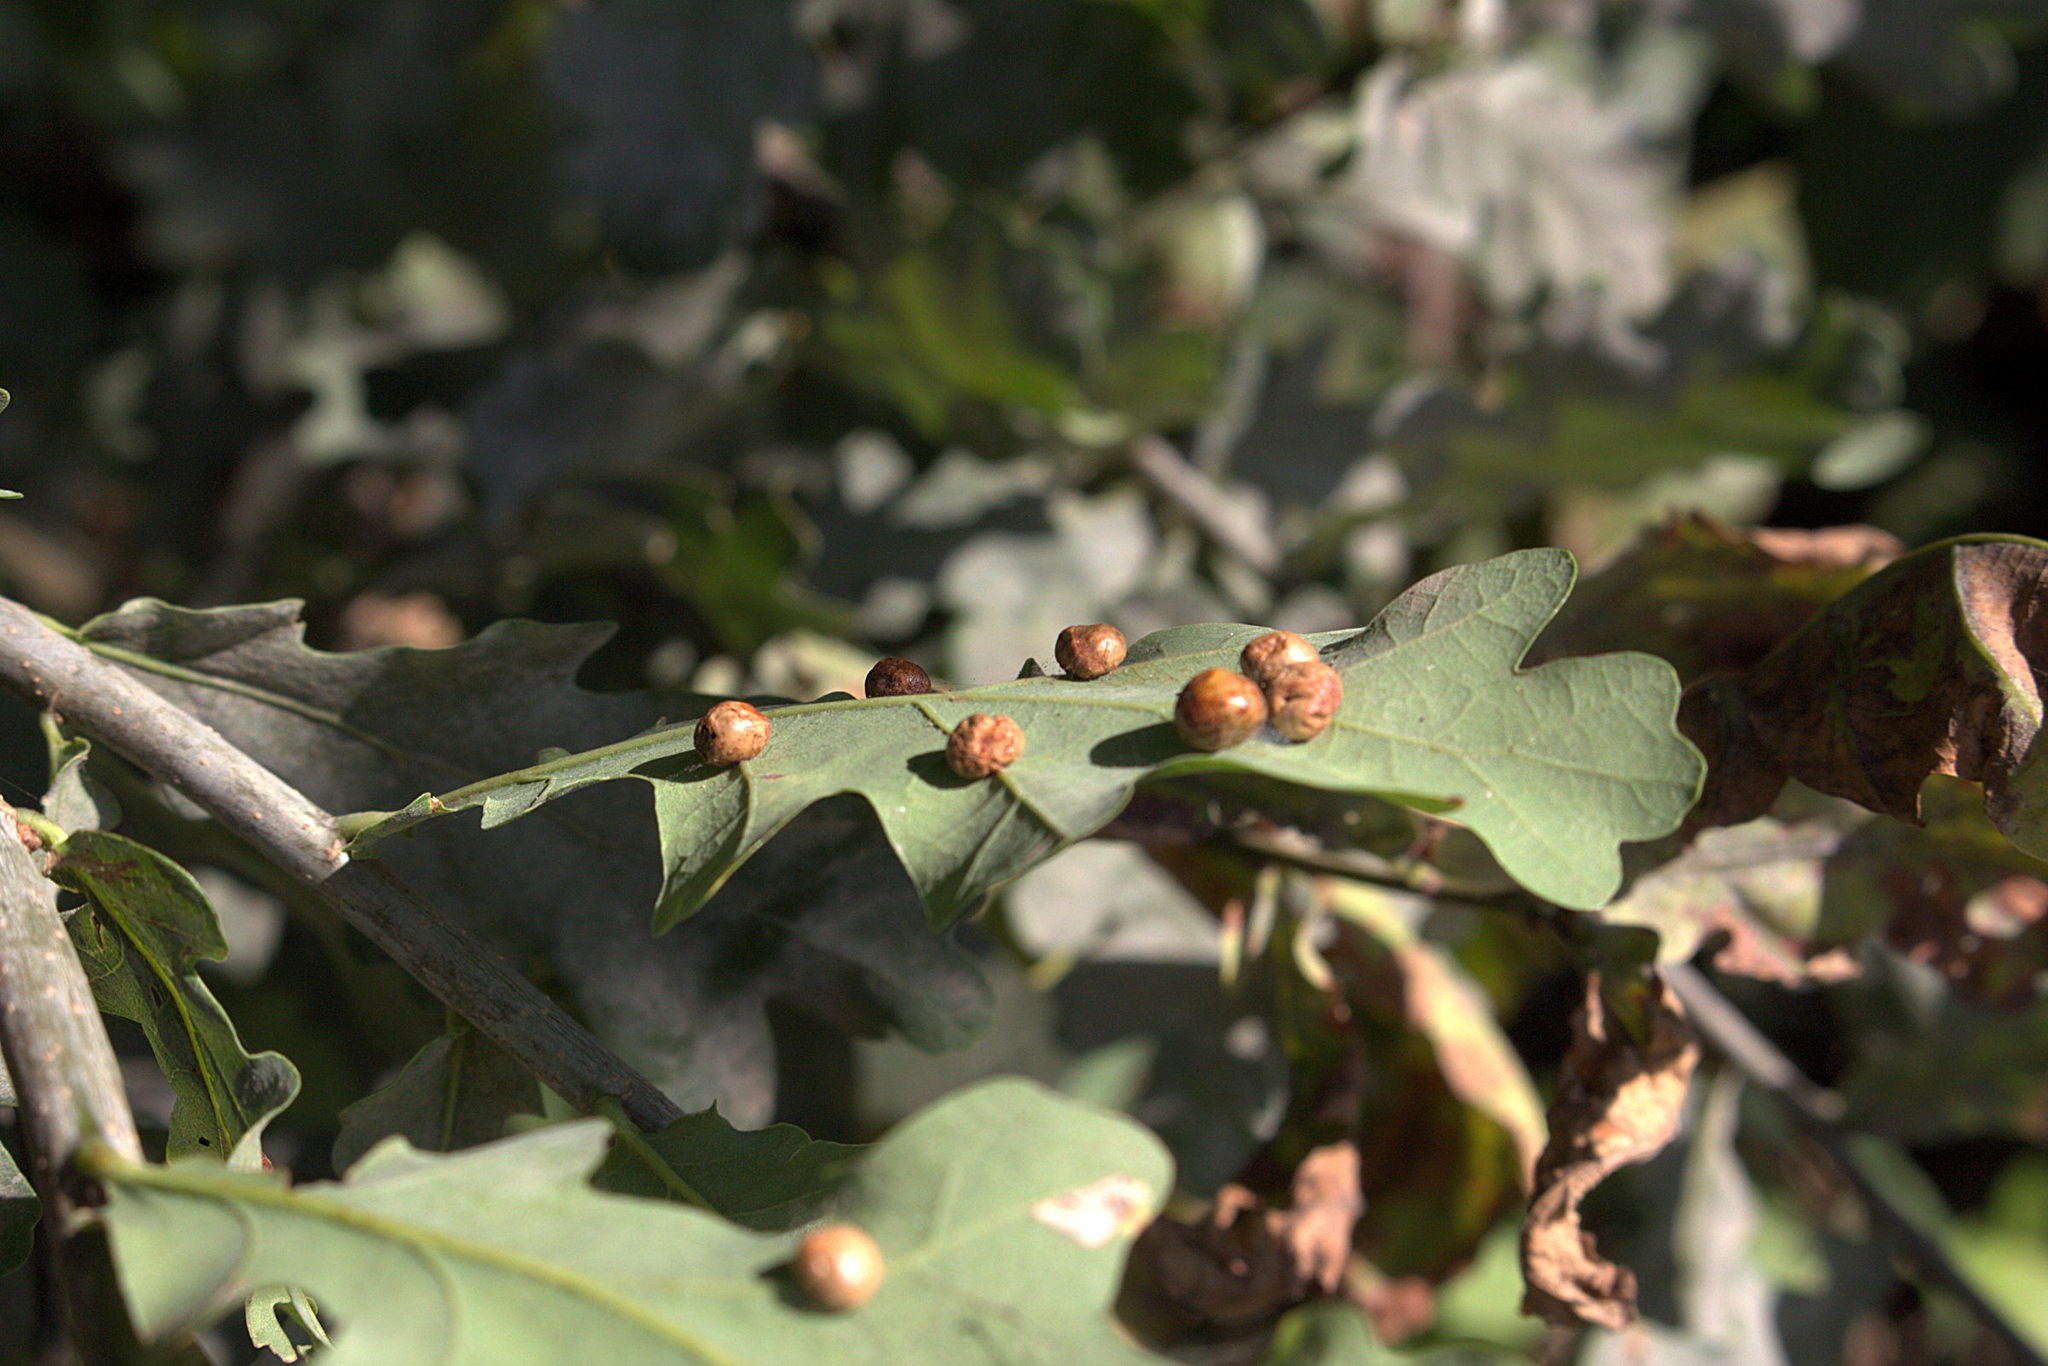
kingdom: Animalia
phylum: Arthropoda
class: Insecta
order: Hymenoptera
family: Cynipidae
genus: Cynips
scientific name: Cynips divisa
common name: Red currant gall
